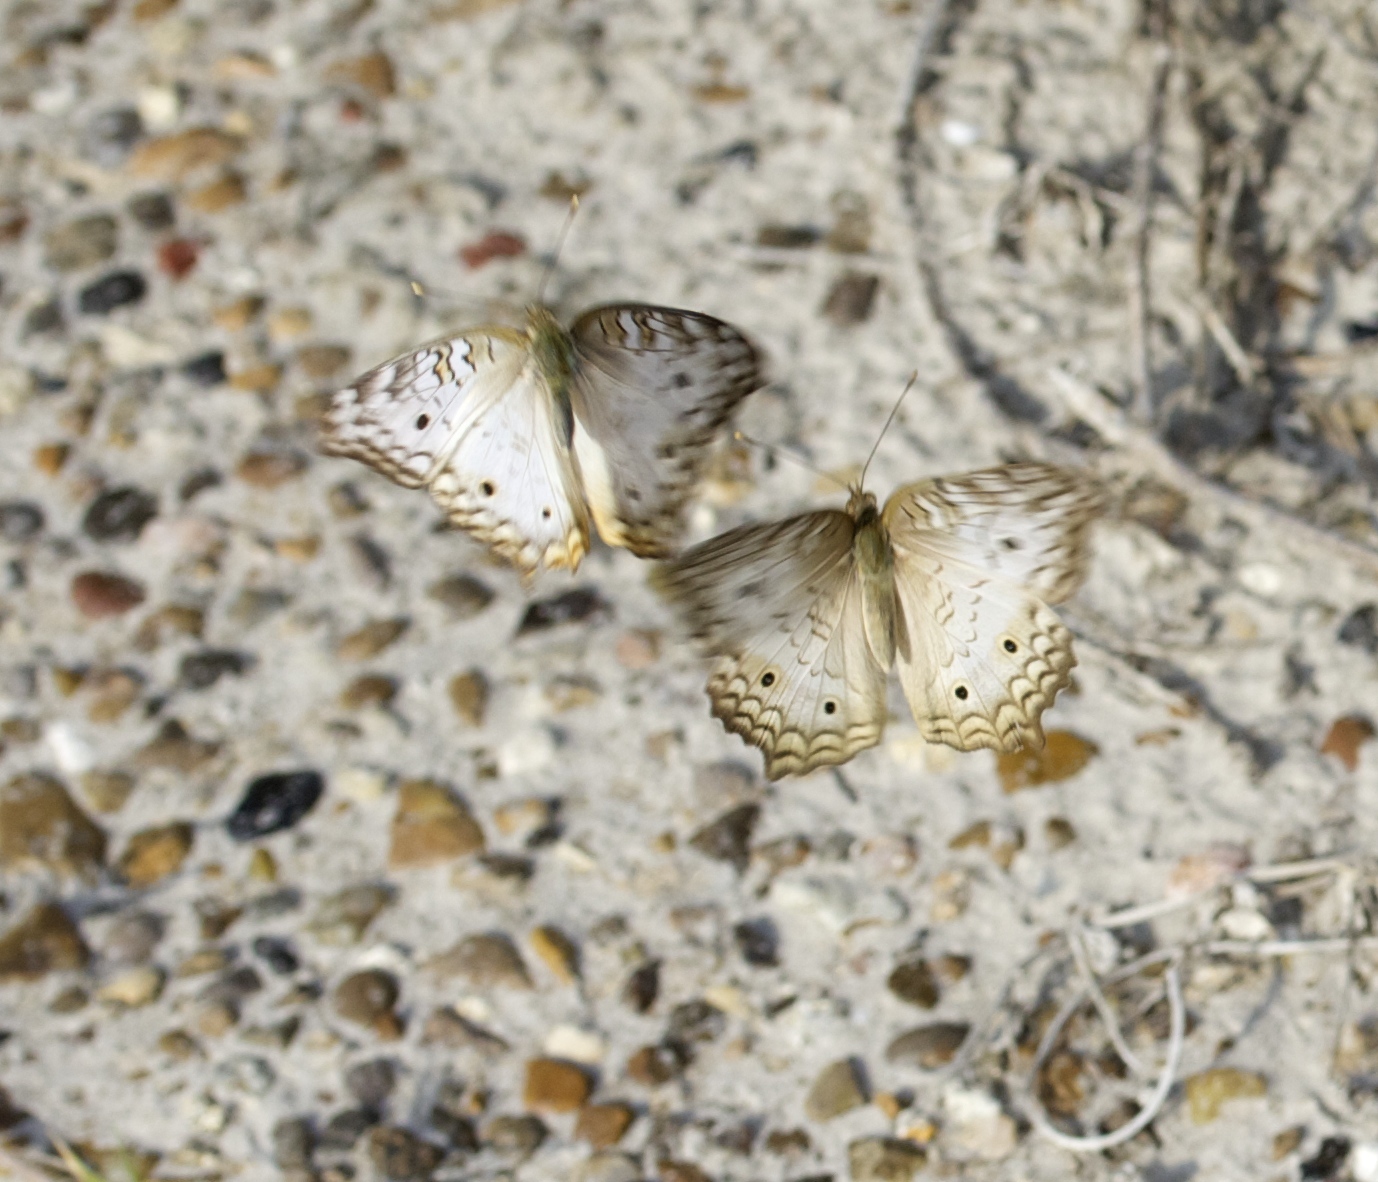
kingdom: Animalia
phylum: Arthropoda
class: Insecta
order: Lepidoptera
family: Nymphalidae
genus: Anartia
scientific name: Anartia jatrophae
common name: White peacock
